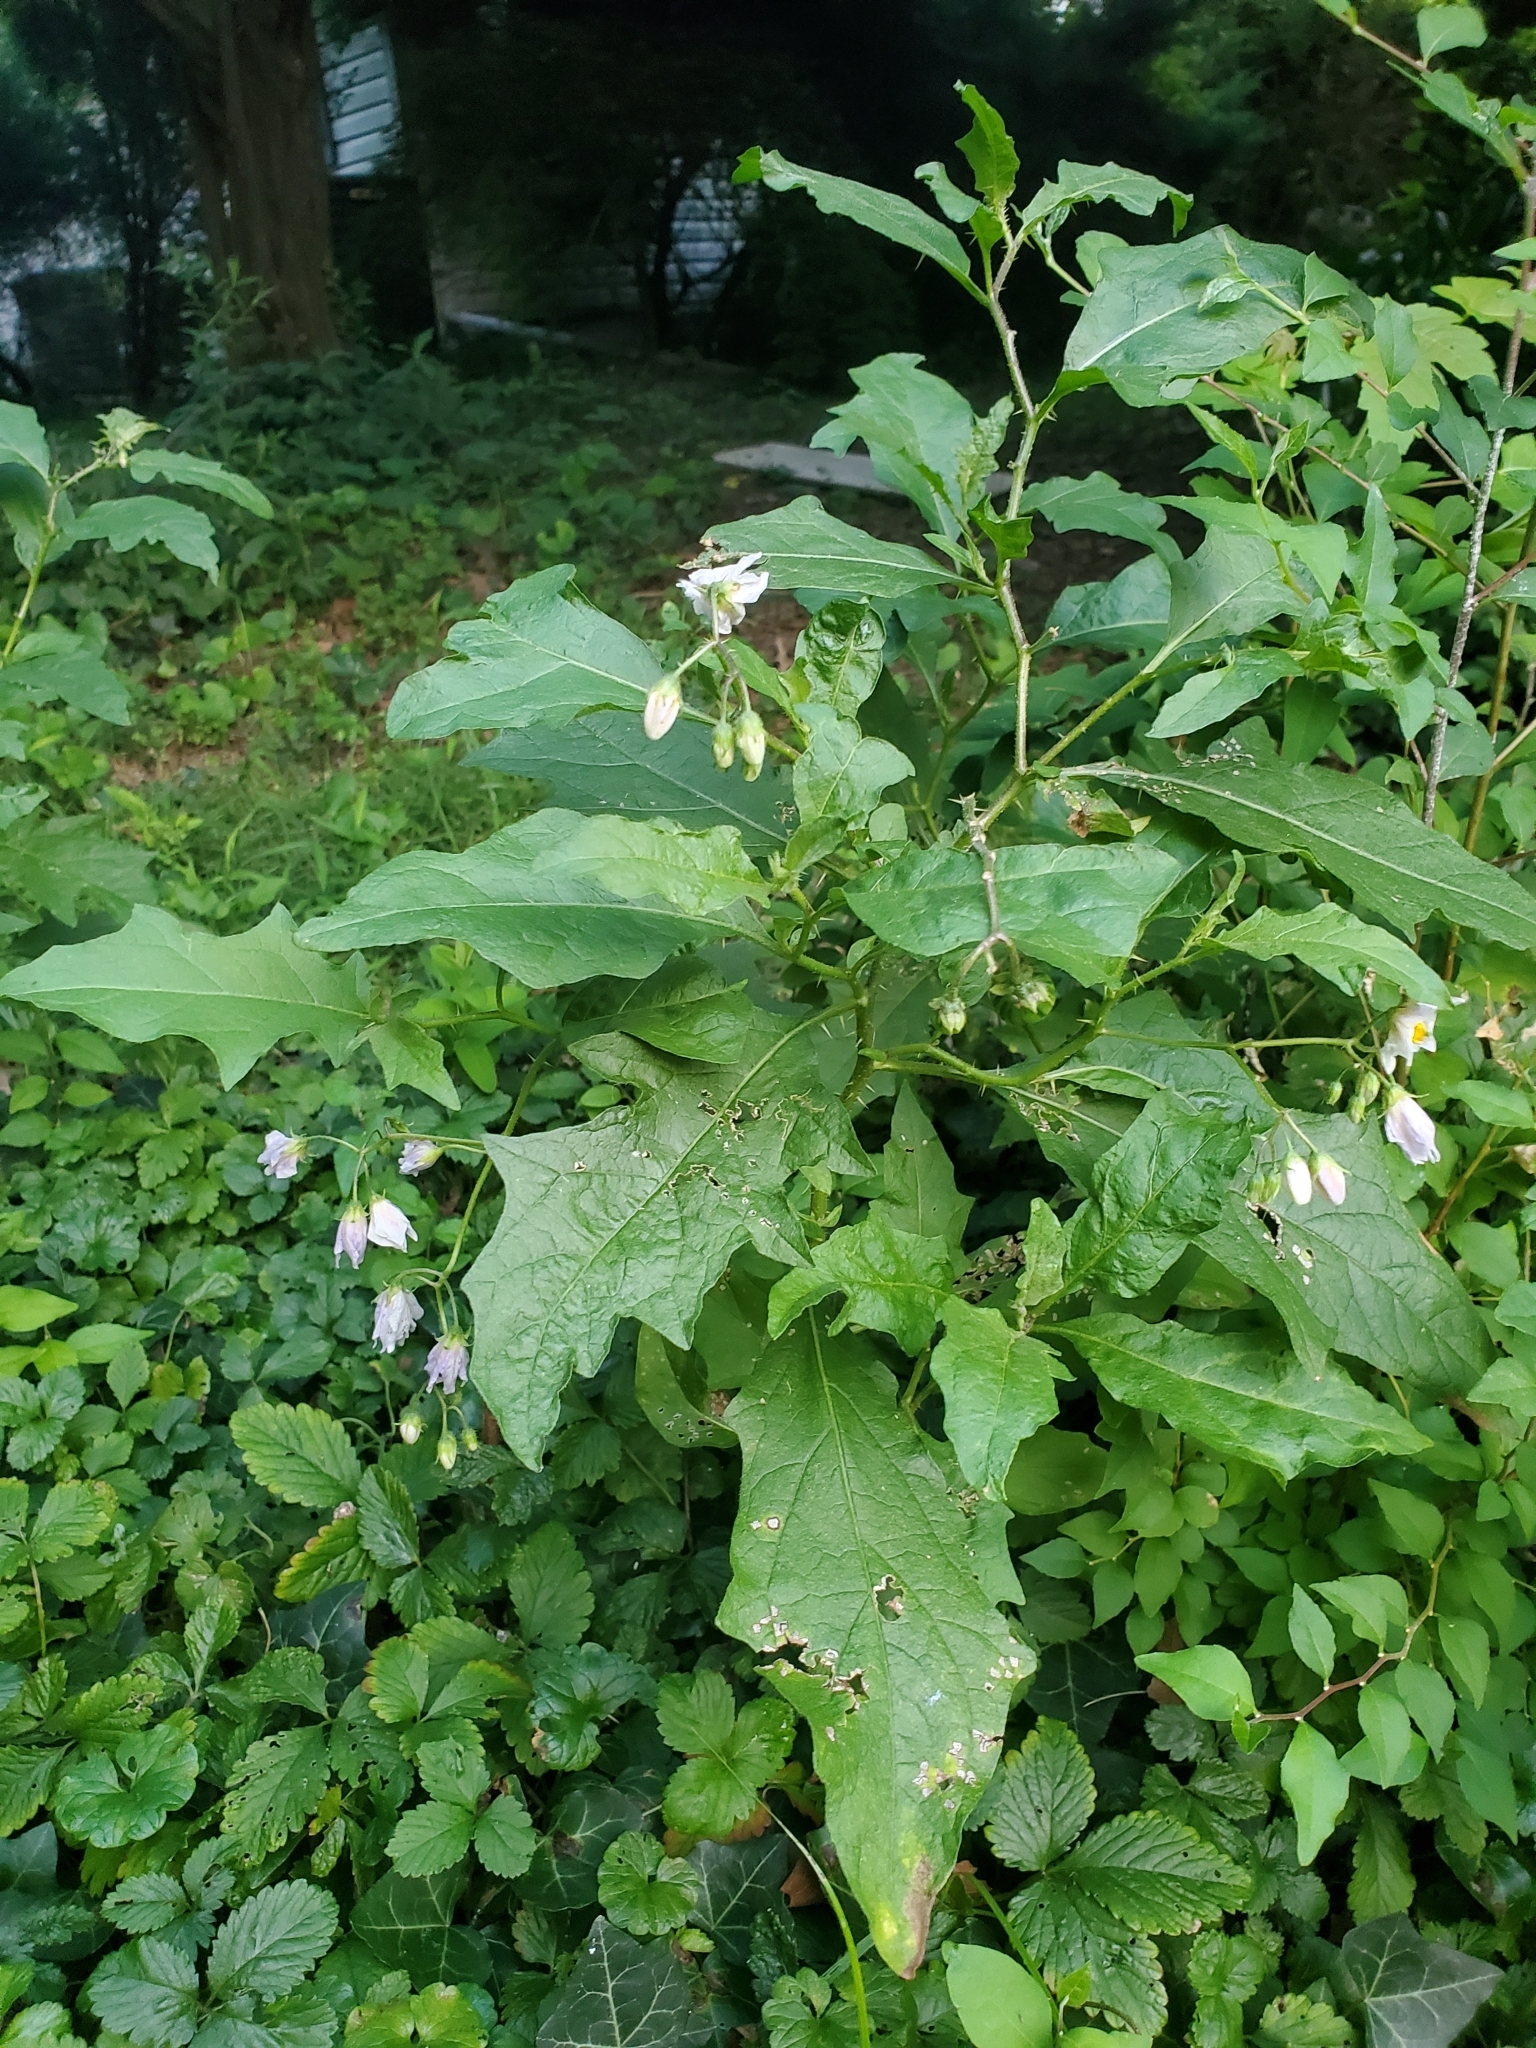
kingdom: Plantae
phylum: Tracheophyta
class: Magnoliopsida
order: Solanales
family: Solanaceae
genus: Solanum
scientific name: Solanum carolinense
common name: Horse-nettle
